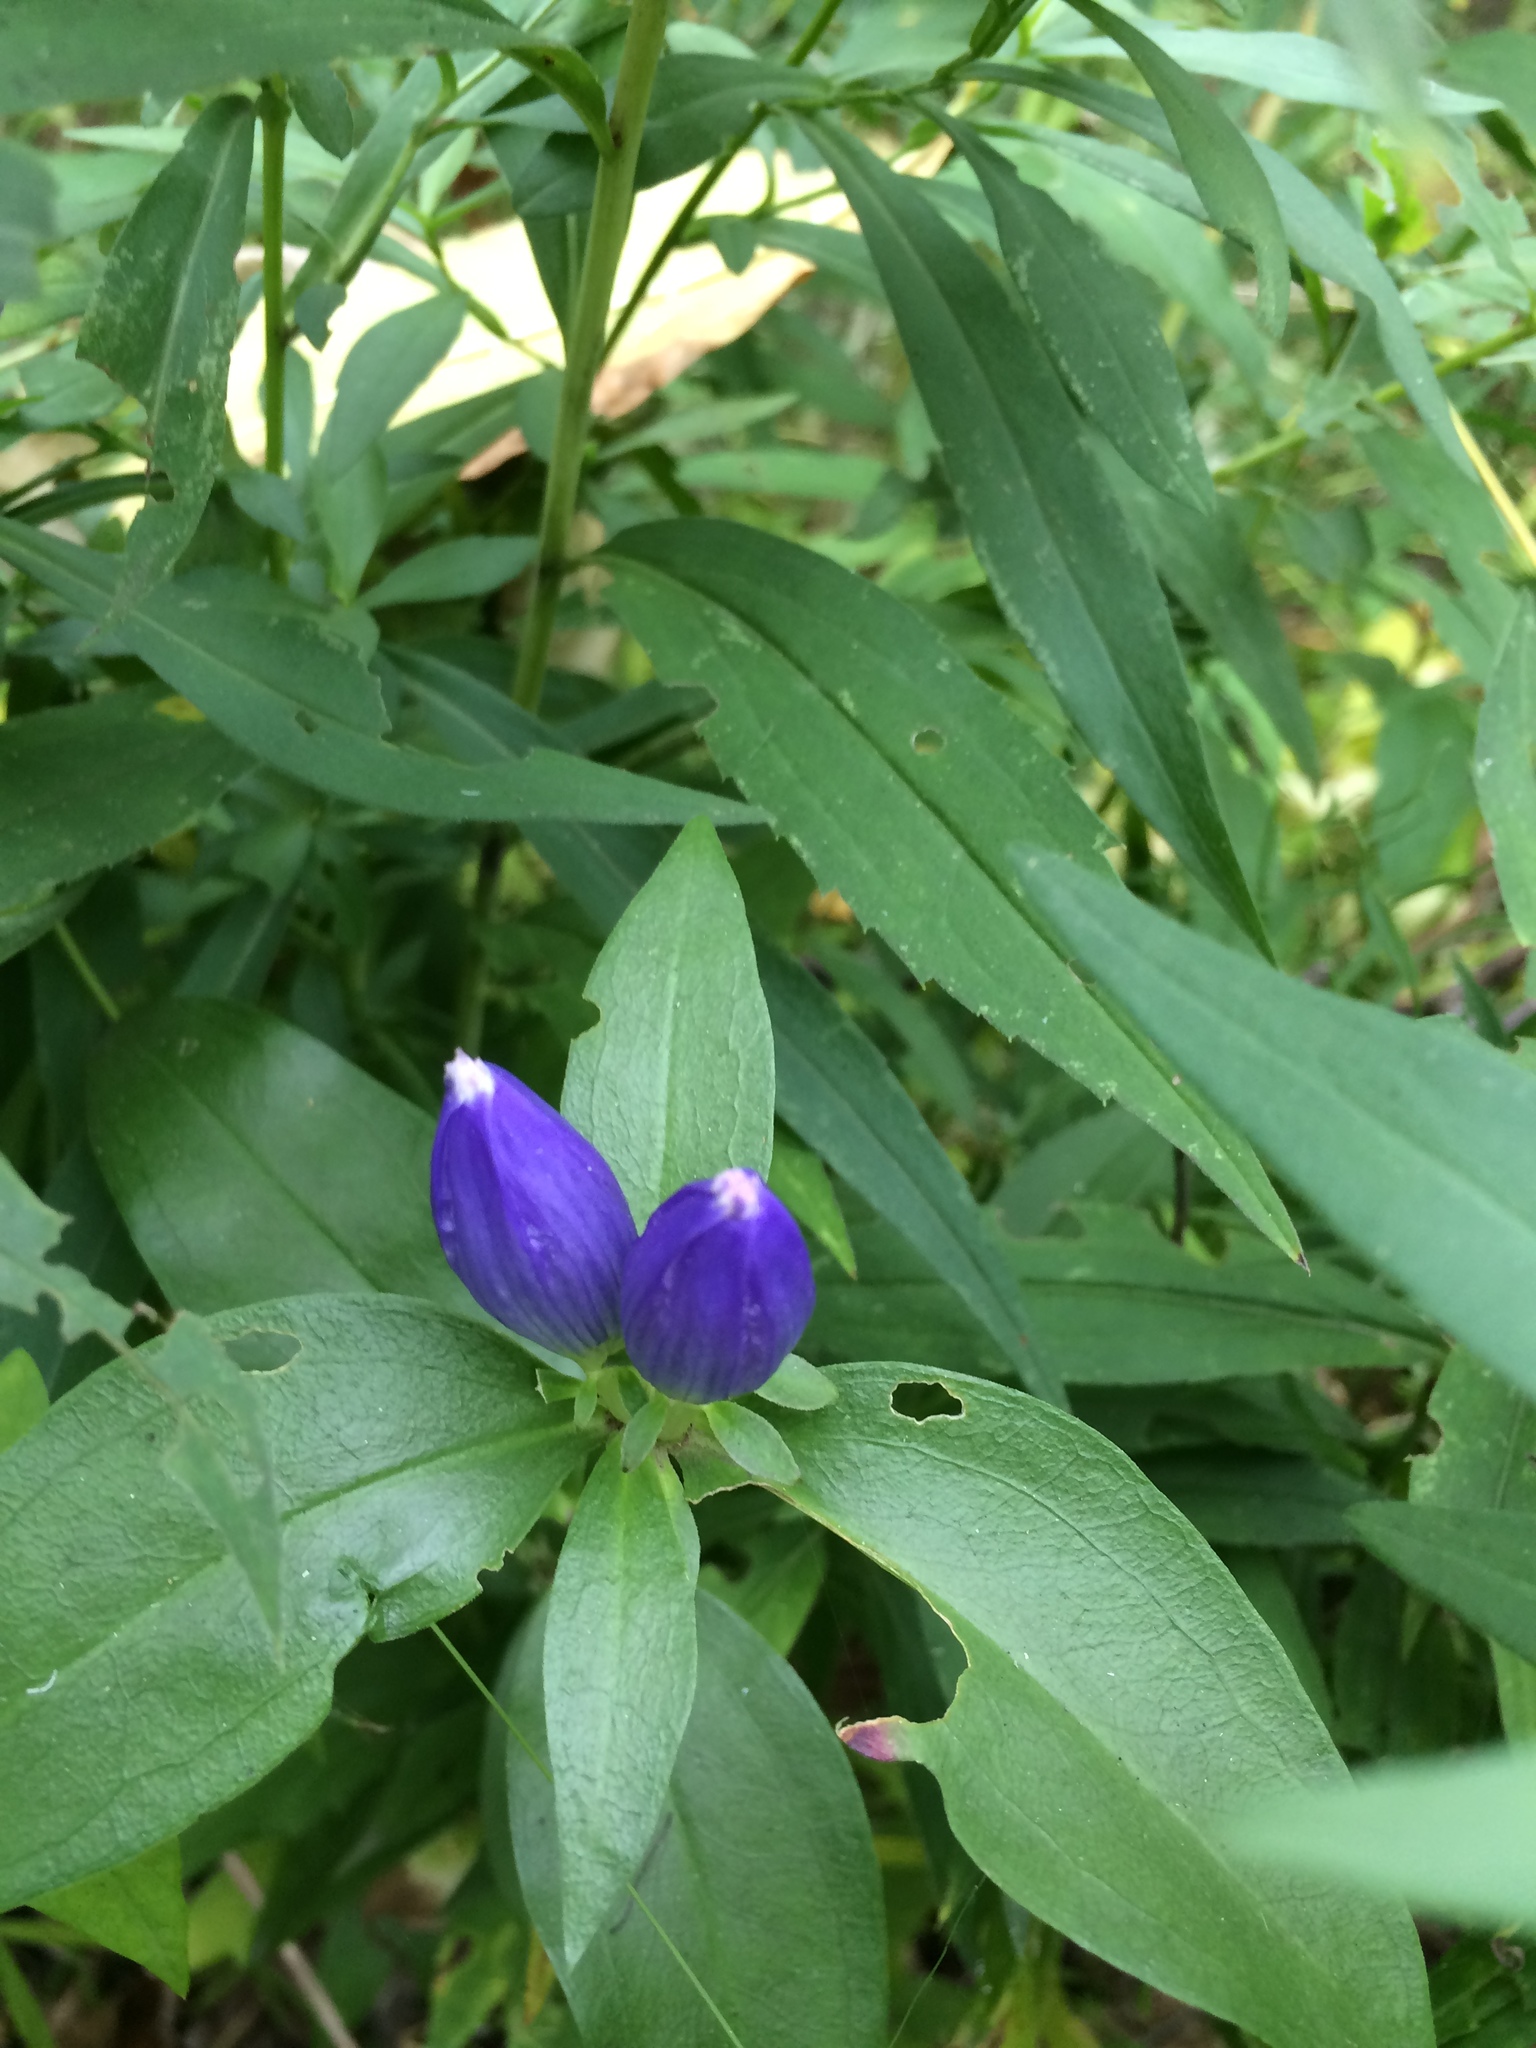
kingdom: Plantae
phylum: Tracheophyta
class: Magnoliopsida
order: Gentianales
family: Gentianaceae
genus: Gentiana
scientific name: Gentiana andrewsii
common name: Bottle gentian
